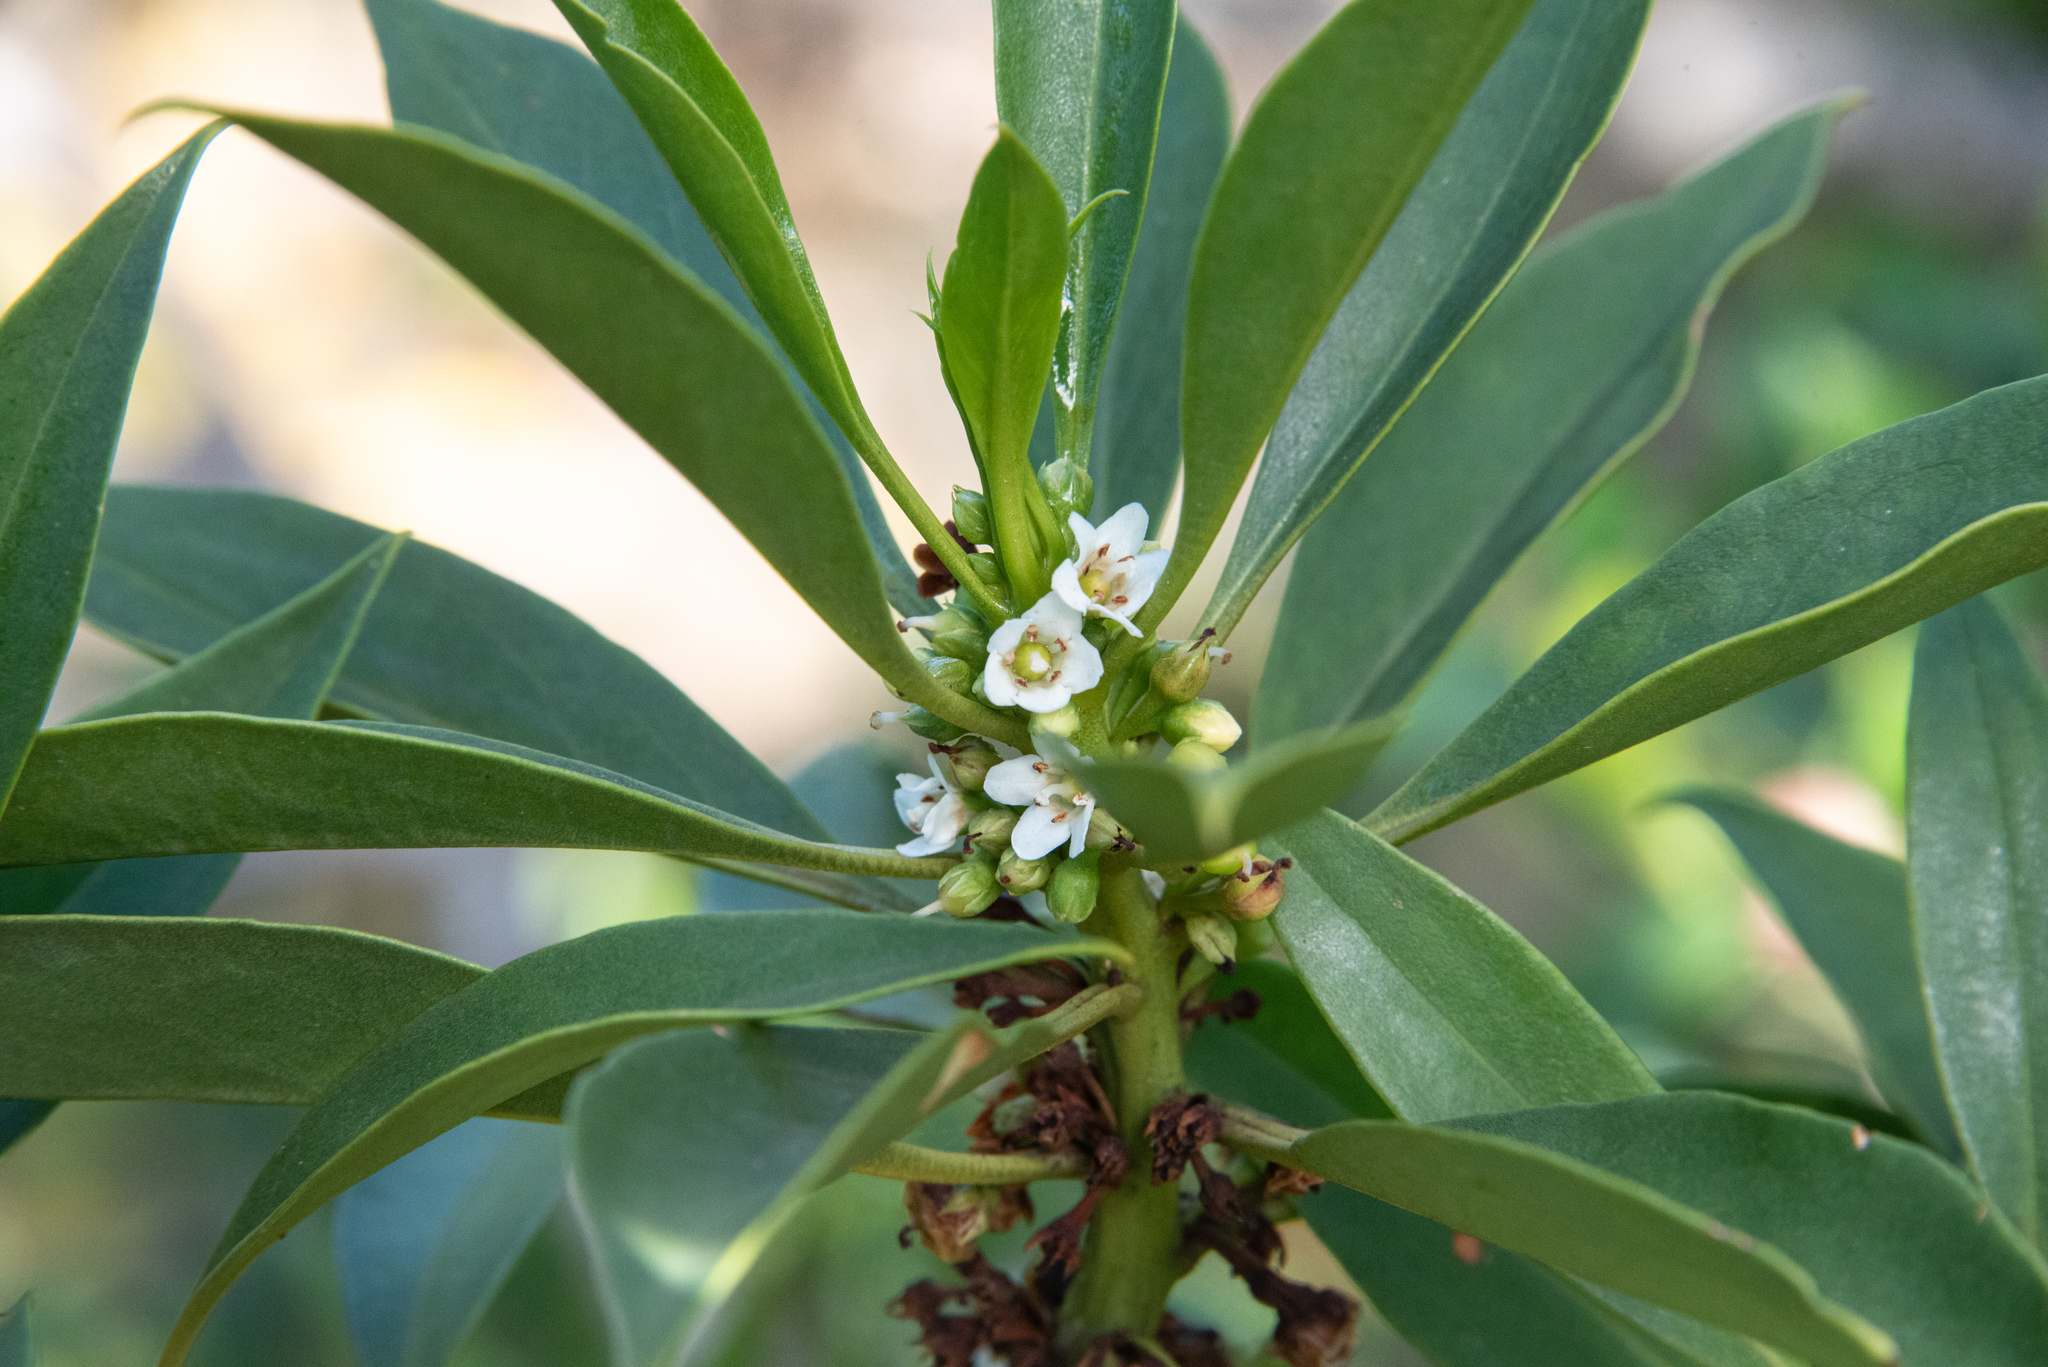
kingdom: Plantae
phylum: Tracheophyta
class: Magnoliopsida
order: Lamiales
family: Scrophulariaceae
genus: Myoporum
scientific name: Myoporum sandwicense
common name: Bastard-sandalwood
